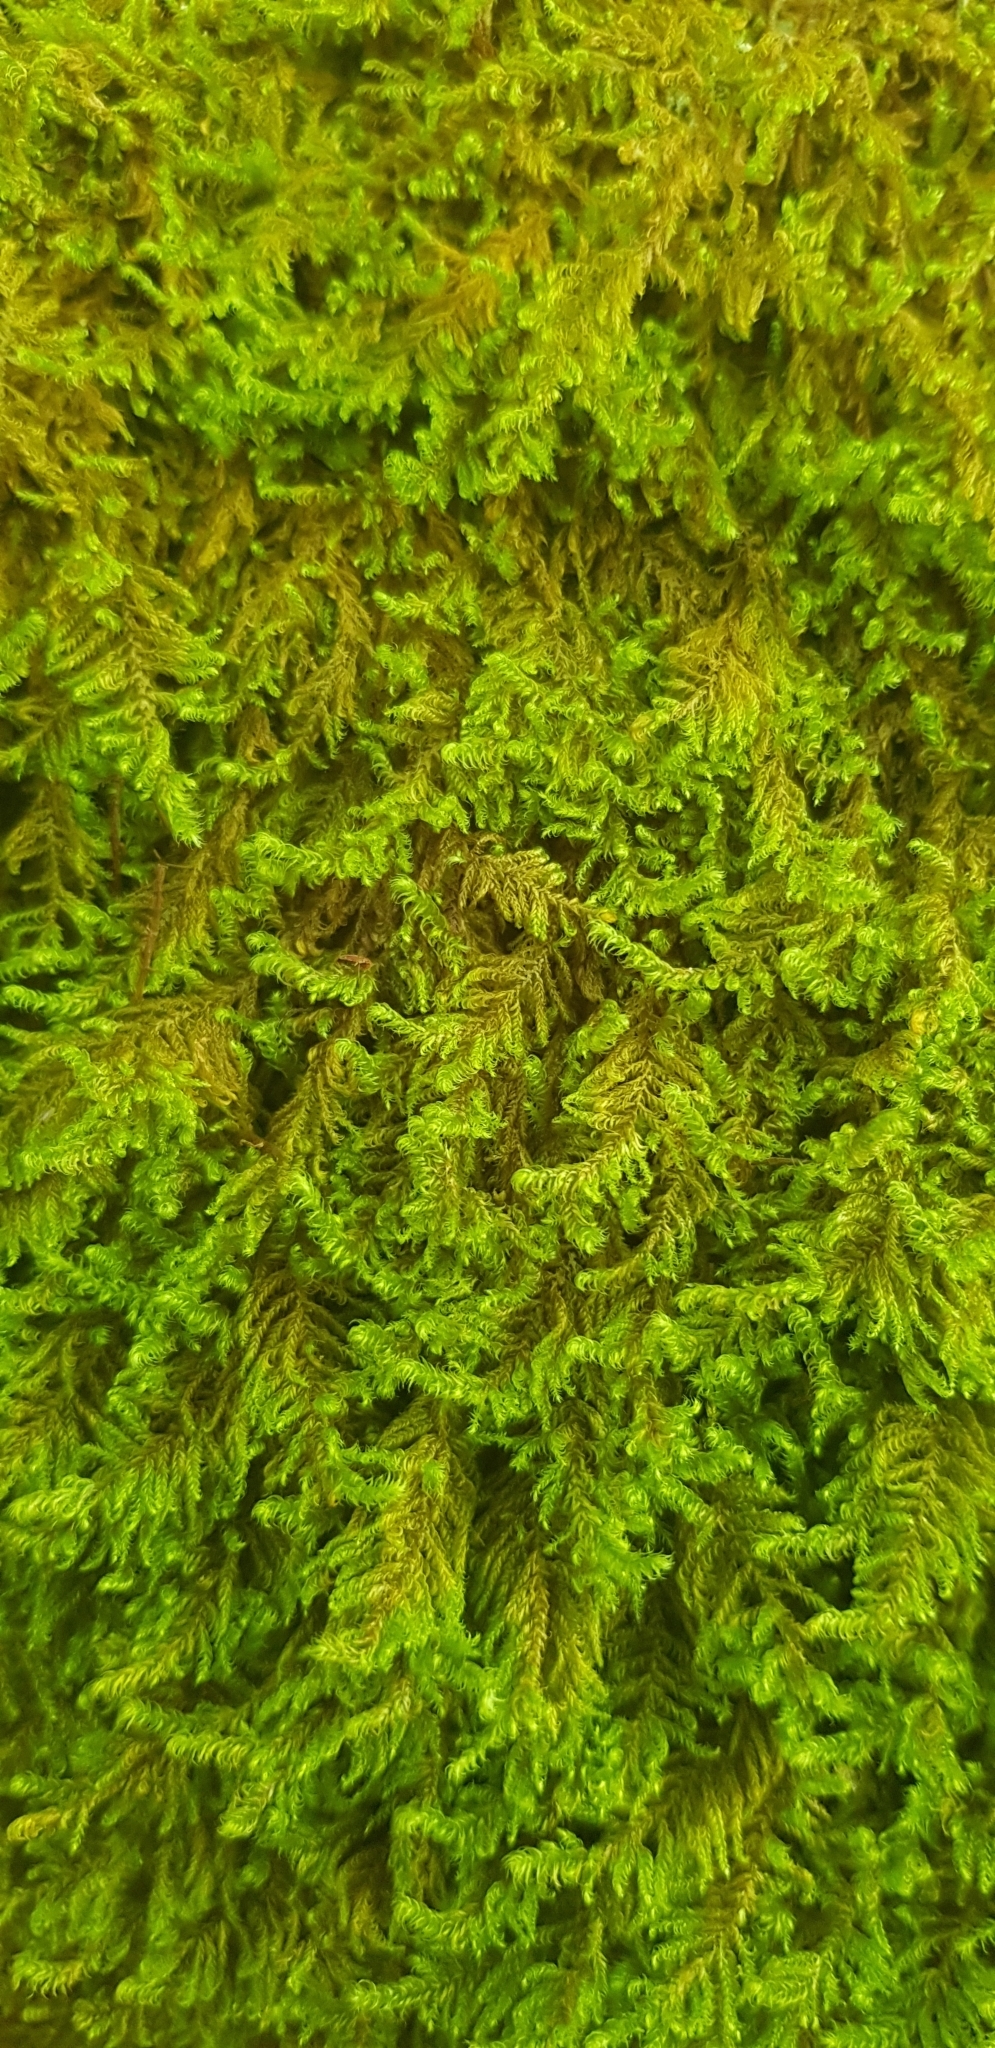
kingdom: Plantae
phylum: Bryophyta
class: Bryopsida
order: Hypnales
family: Myuriaceae
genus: Ctenidium
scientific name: Ctenidium molluscum
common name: Chalk comb-moss
